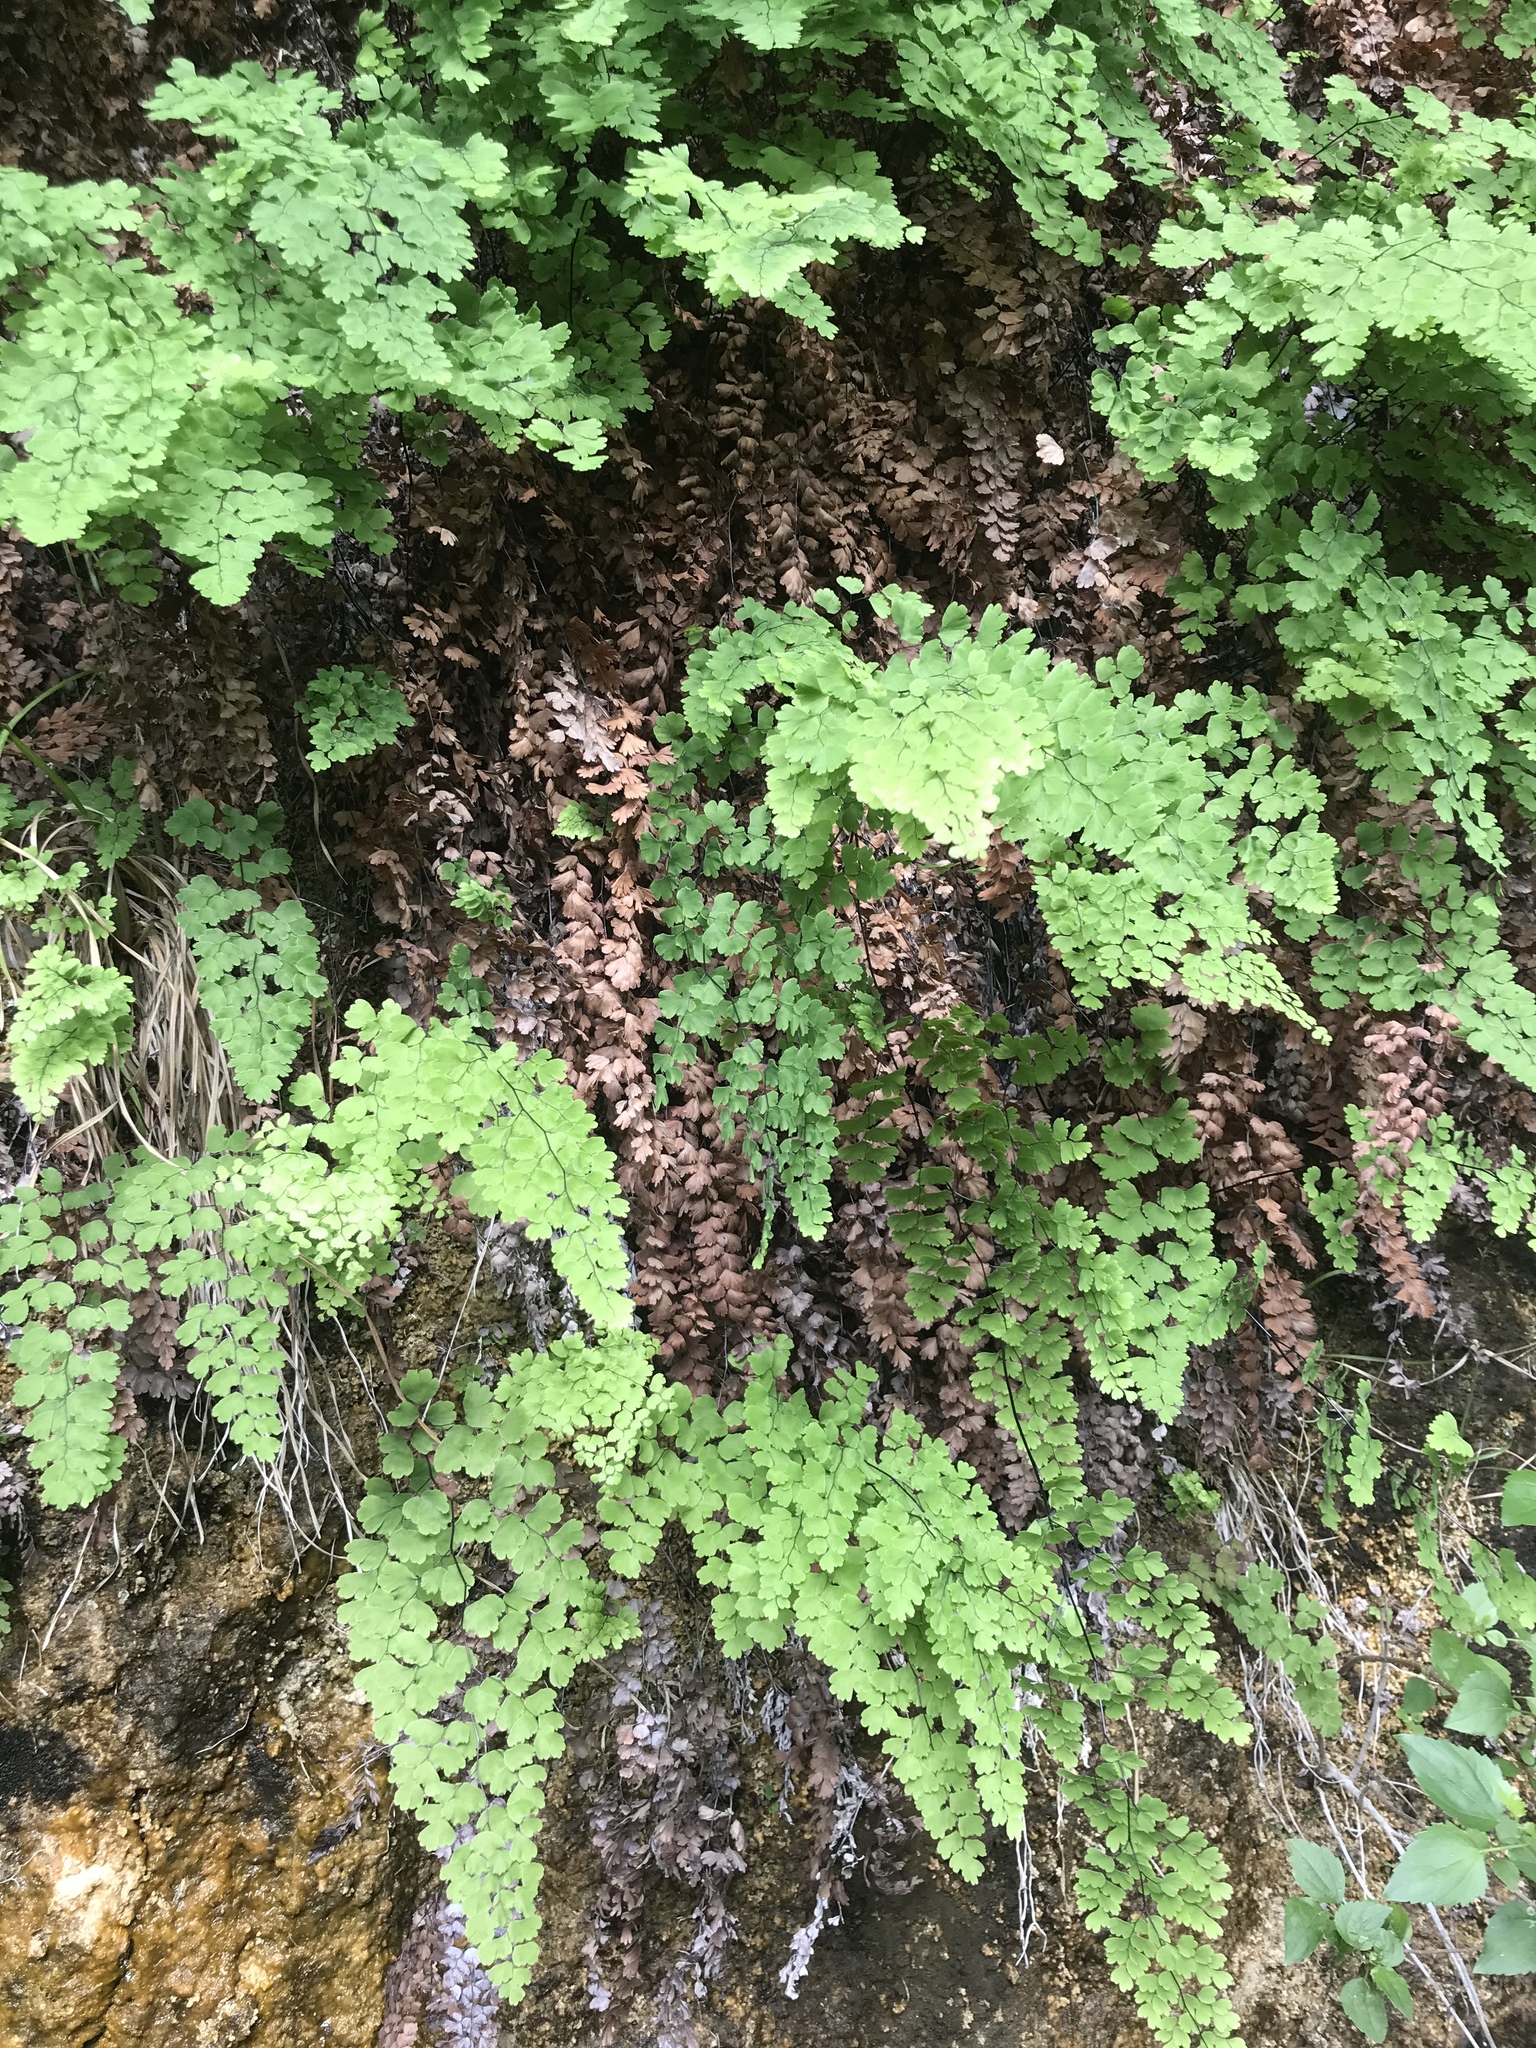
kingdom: Plantae
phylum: Tracheophyta
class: Polypodiopsida
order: Polypodiales
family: Pteridaceae
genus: Adiantum
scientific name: Adiantum capillus-veneris
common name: Maidenhair fern
